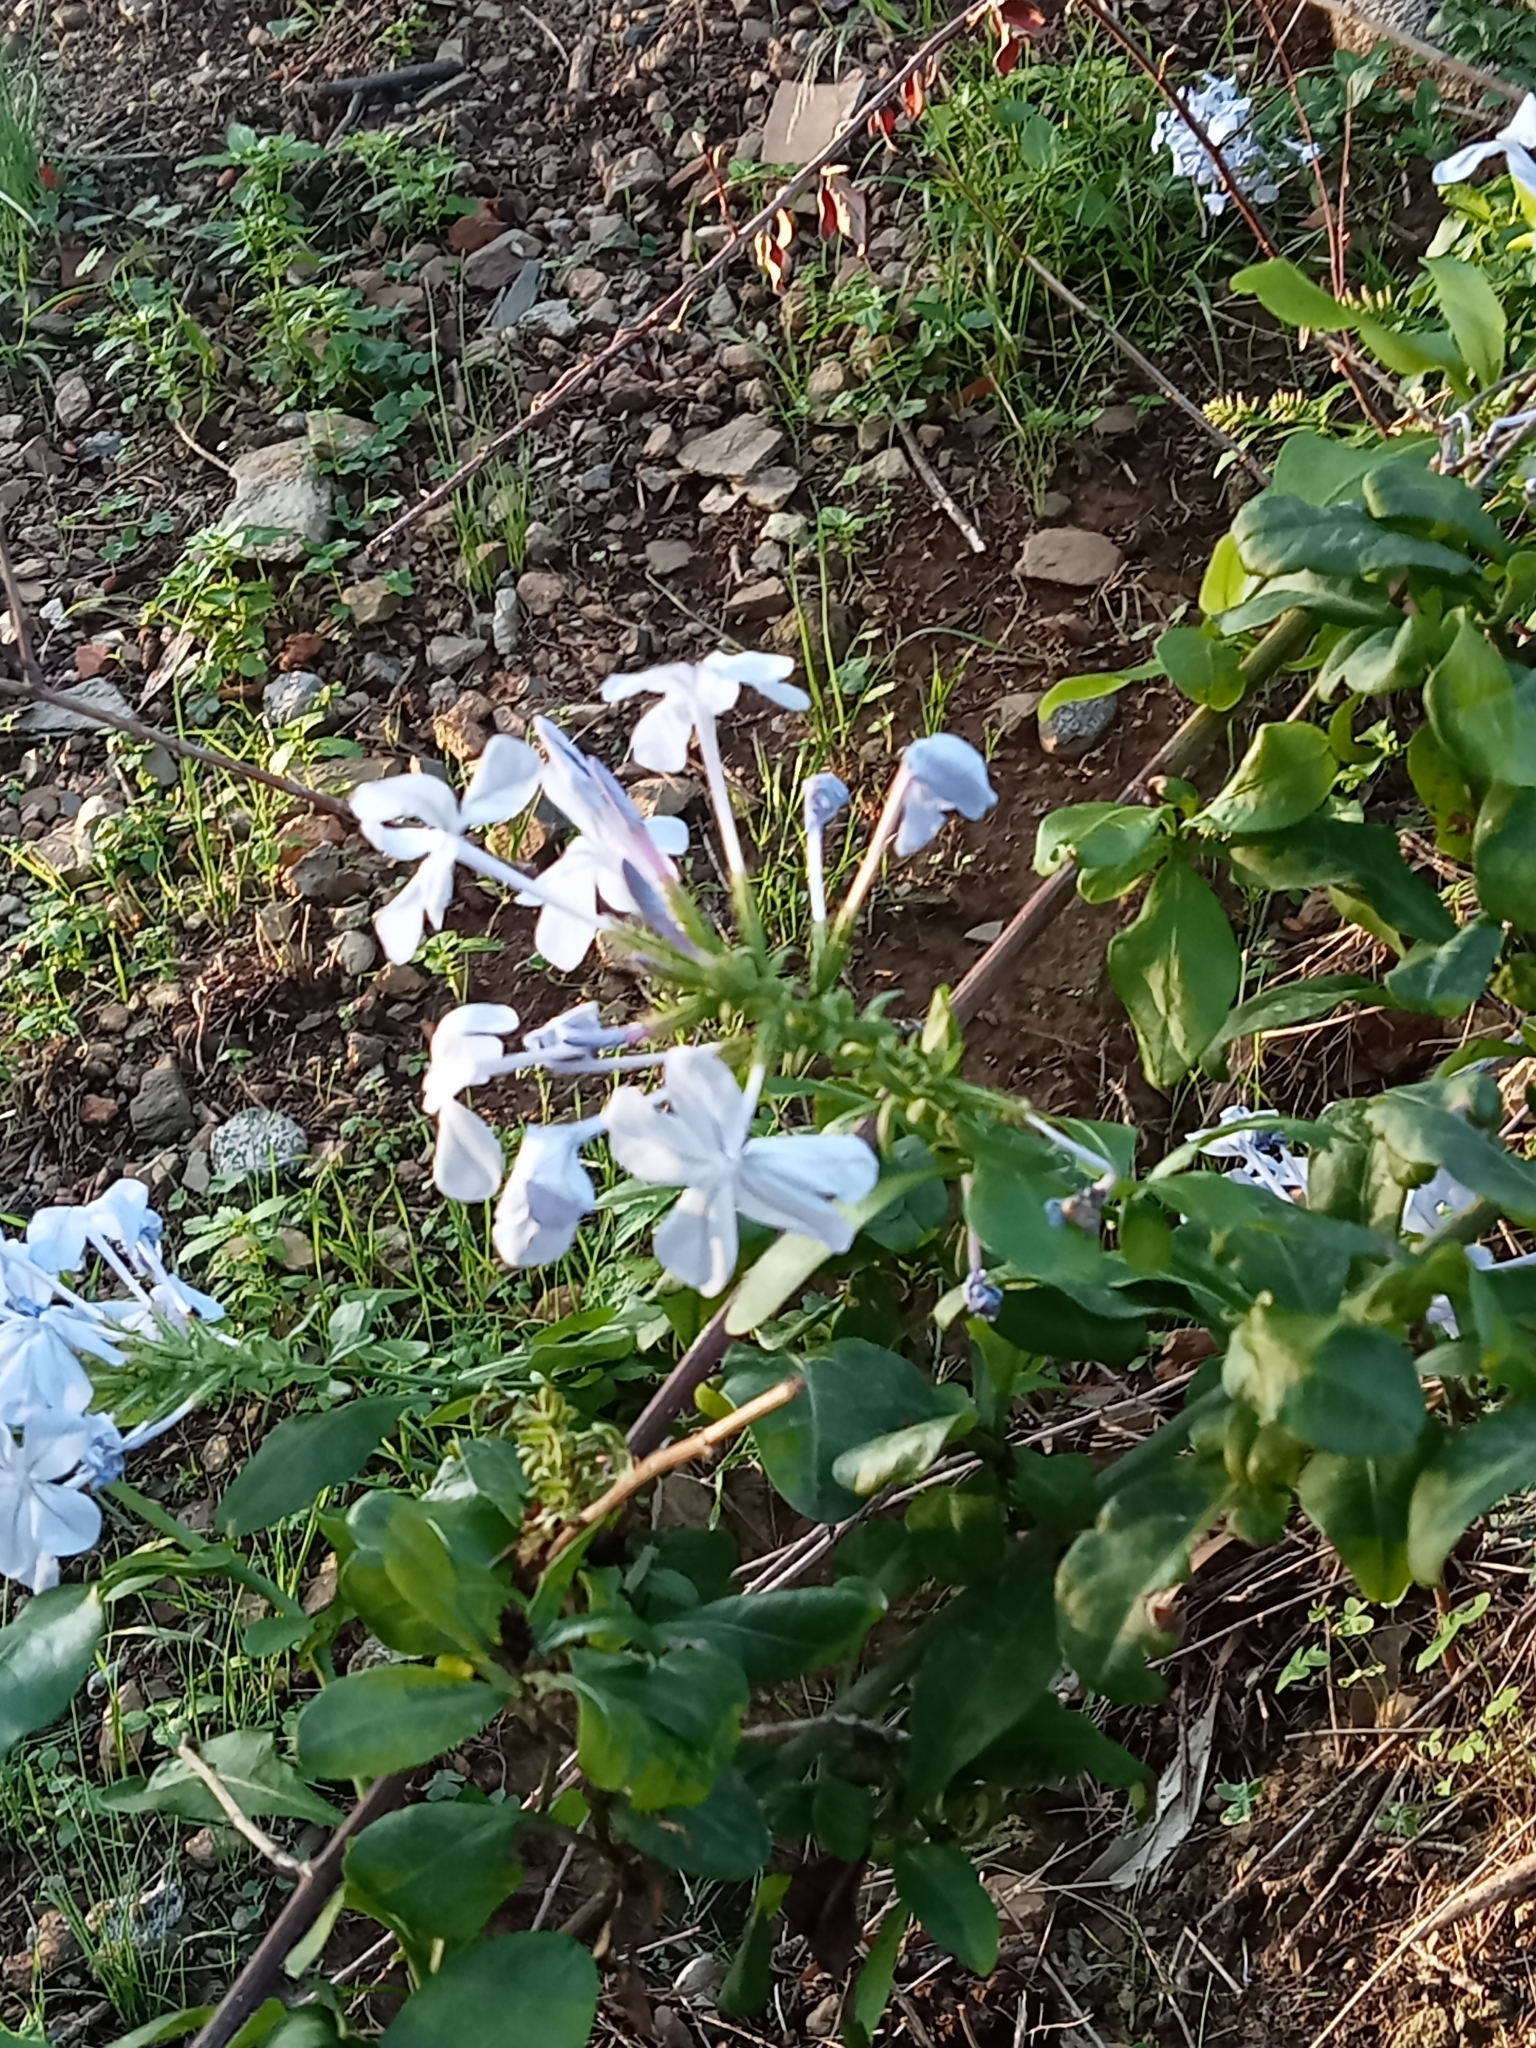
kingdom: Plantae
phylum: Tracheophyta
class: Magnoliopsida
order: Caryophyllales
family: Plumbaginaceae
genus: Plumbago
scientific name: Plumbago auriculata
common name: Cape leadwort
